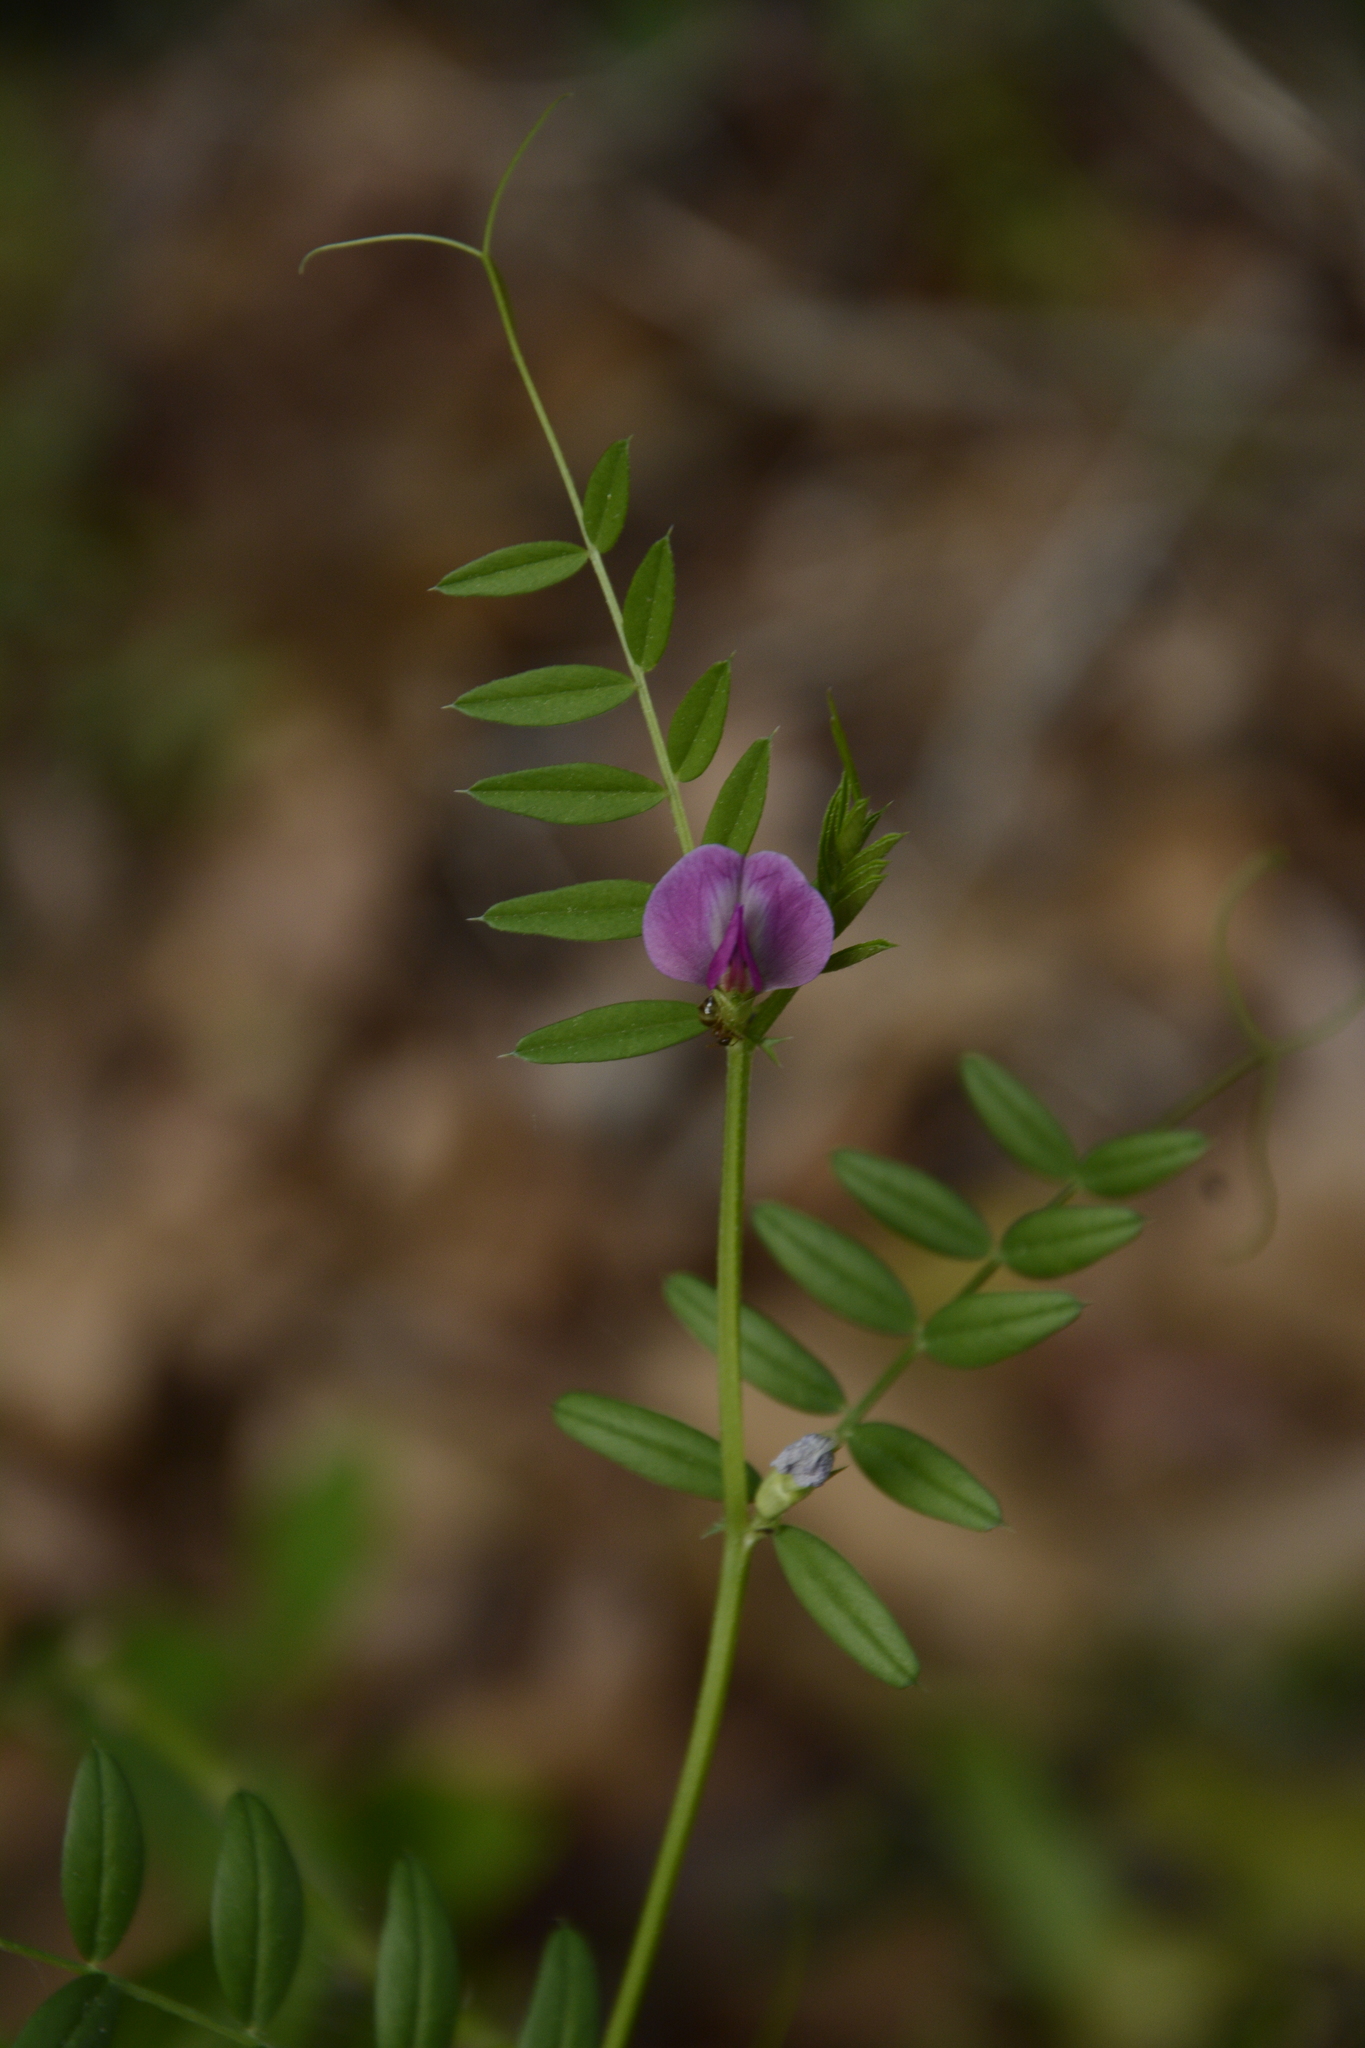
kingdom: Plantae
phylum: Tracheophyta
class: Magnoliopsida
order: Fabales
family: Fabaceae
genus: Vicia
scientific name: Vicia sativa
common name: Garden vetch
